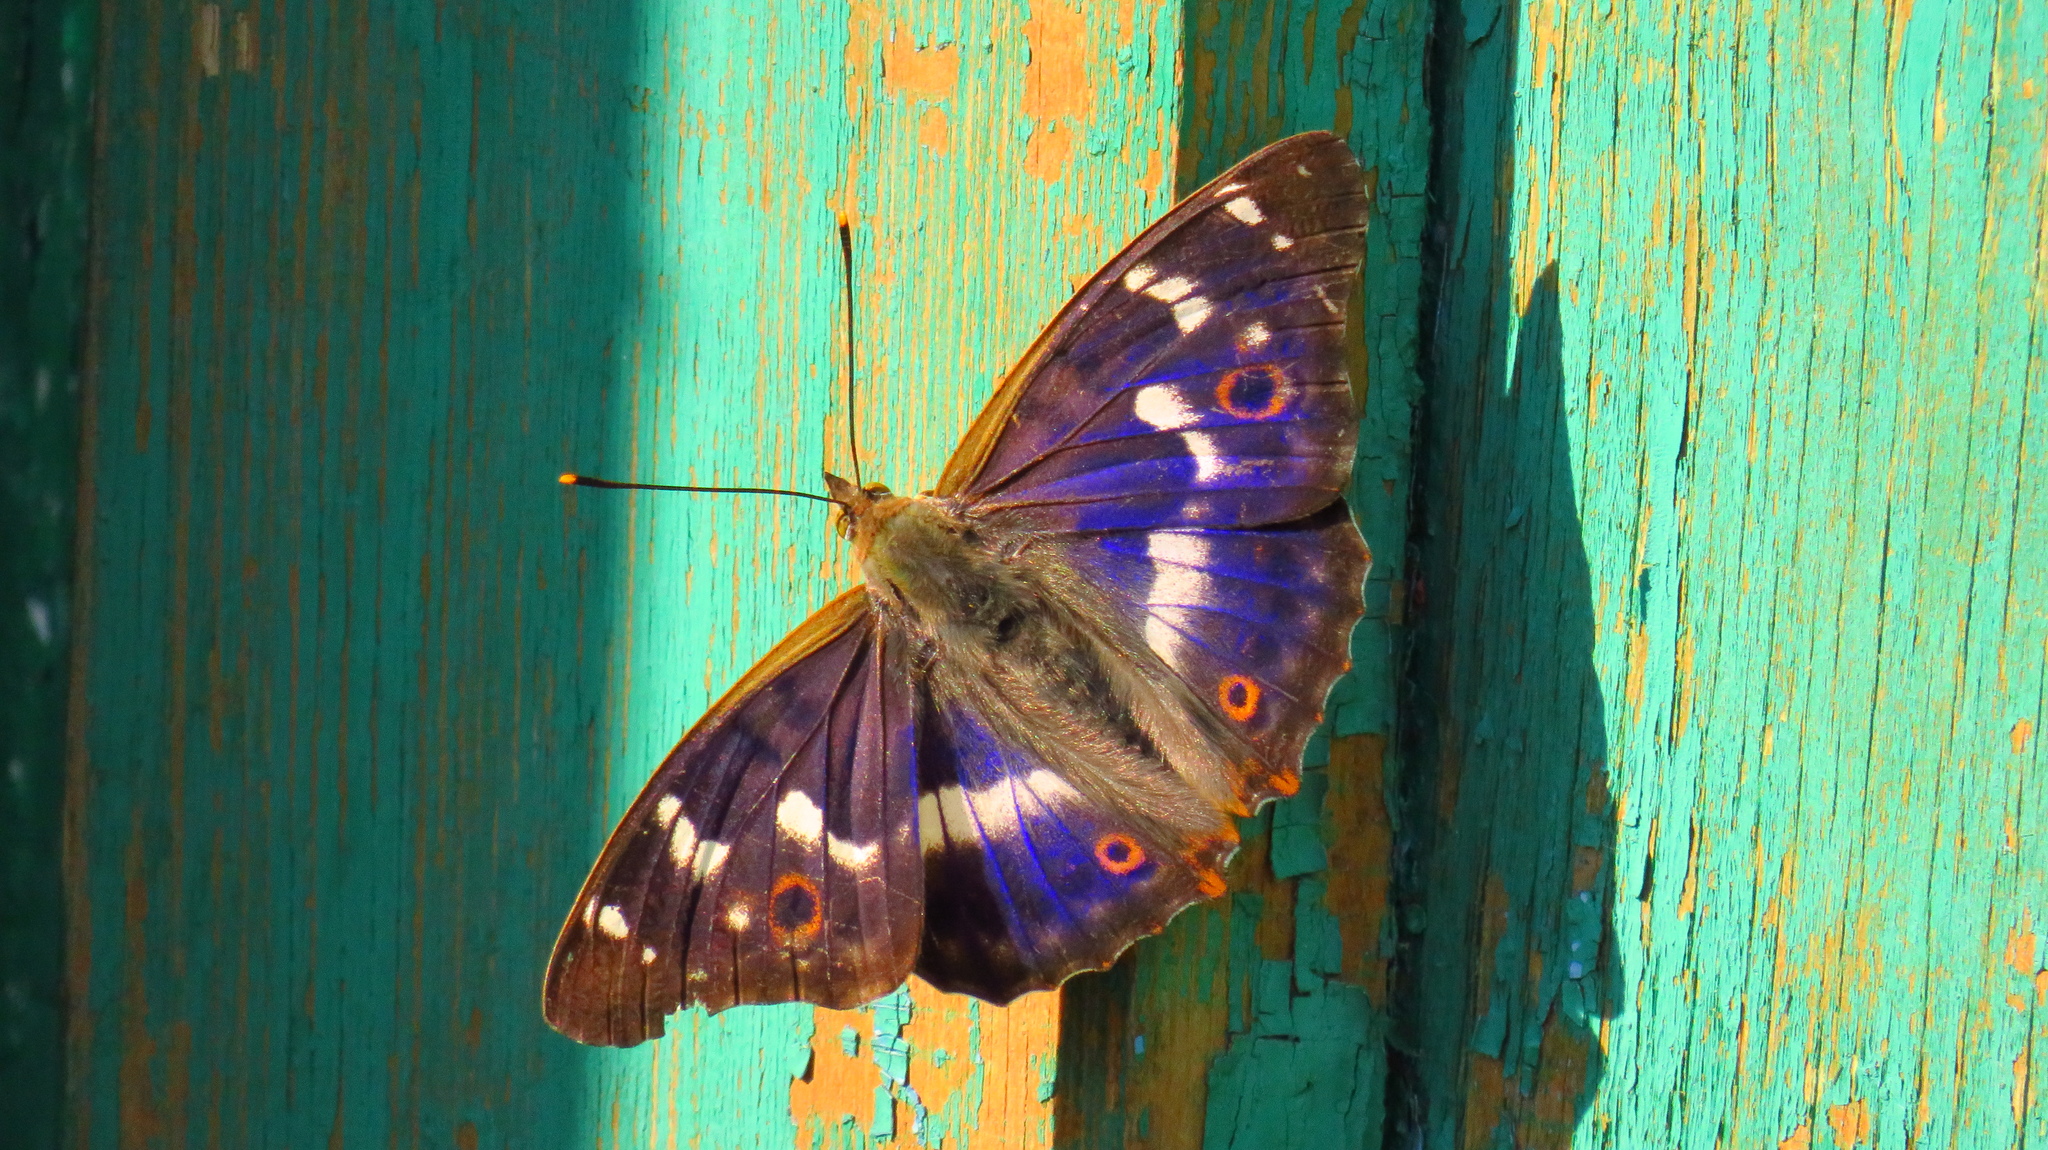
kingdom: Animalia
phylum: Arthropoda
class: Insecta
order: Lepidoptera
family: Nymphalidae
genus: Apatura
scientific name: Apatura ilia
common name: Lesser purple emperor
